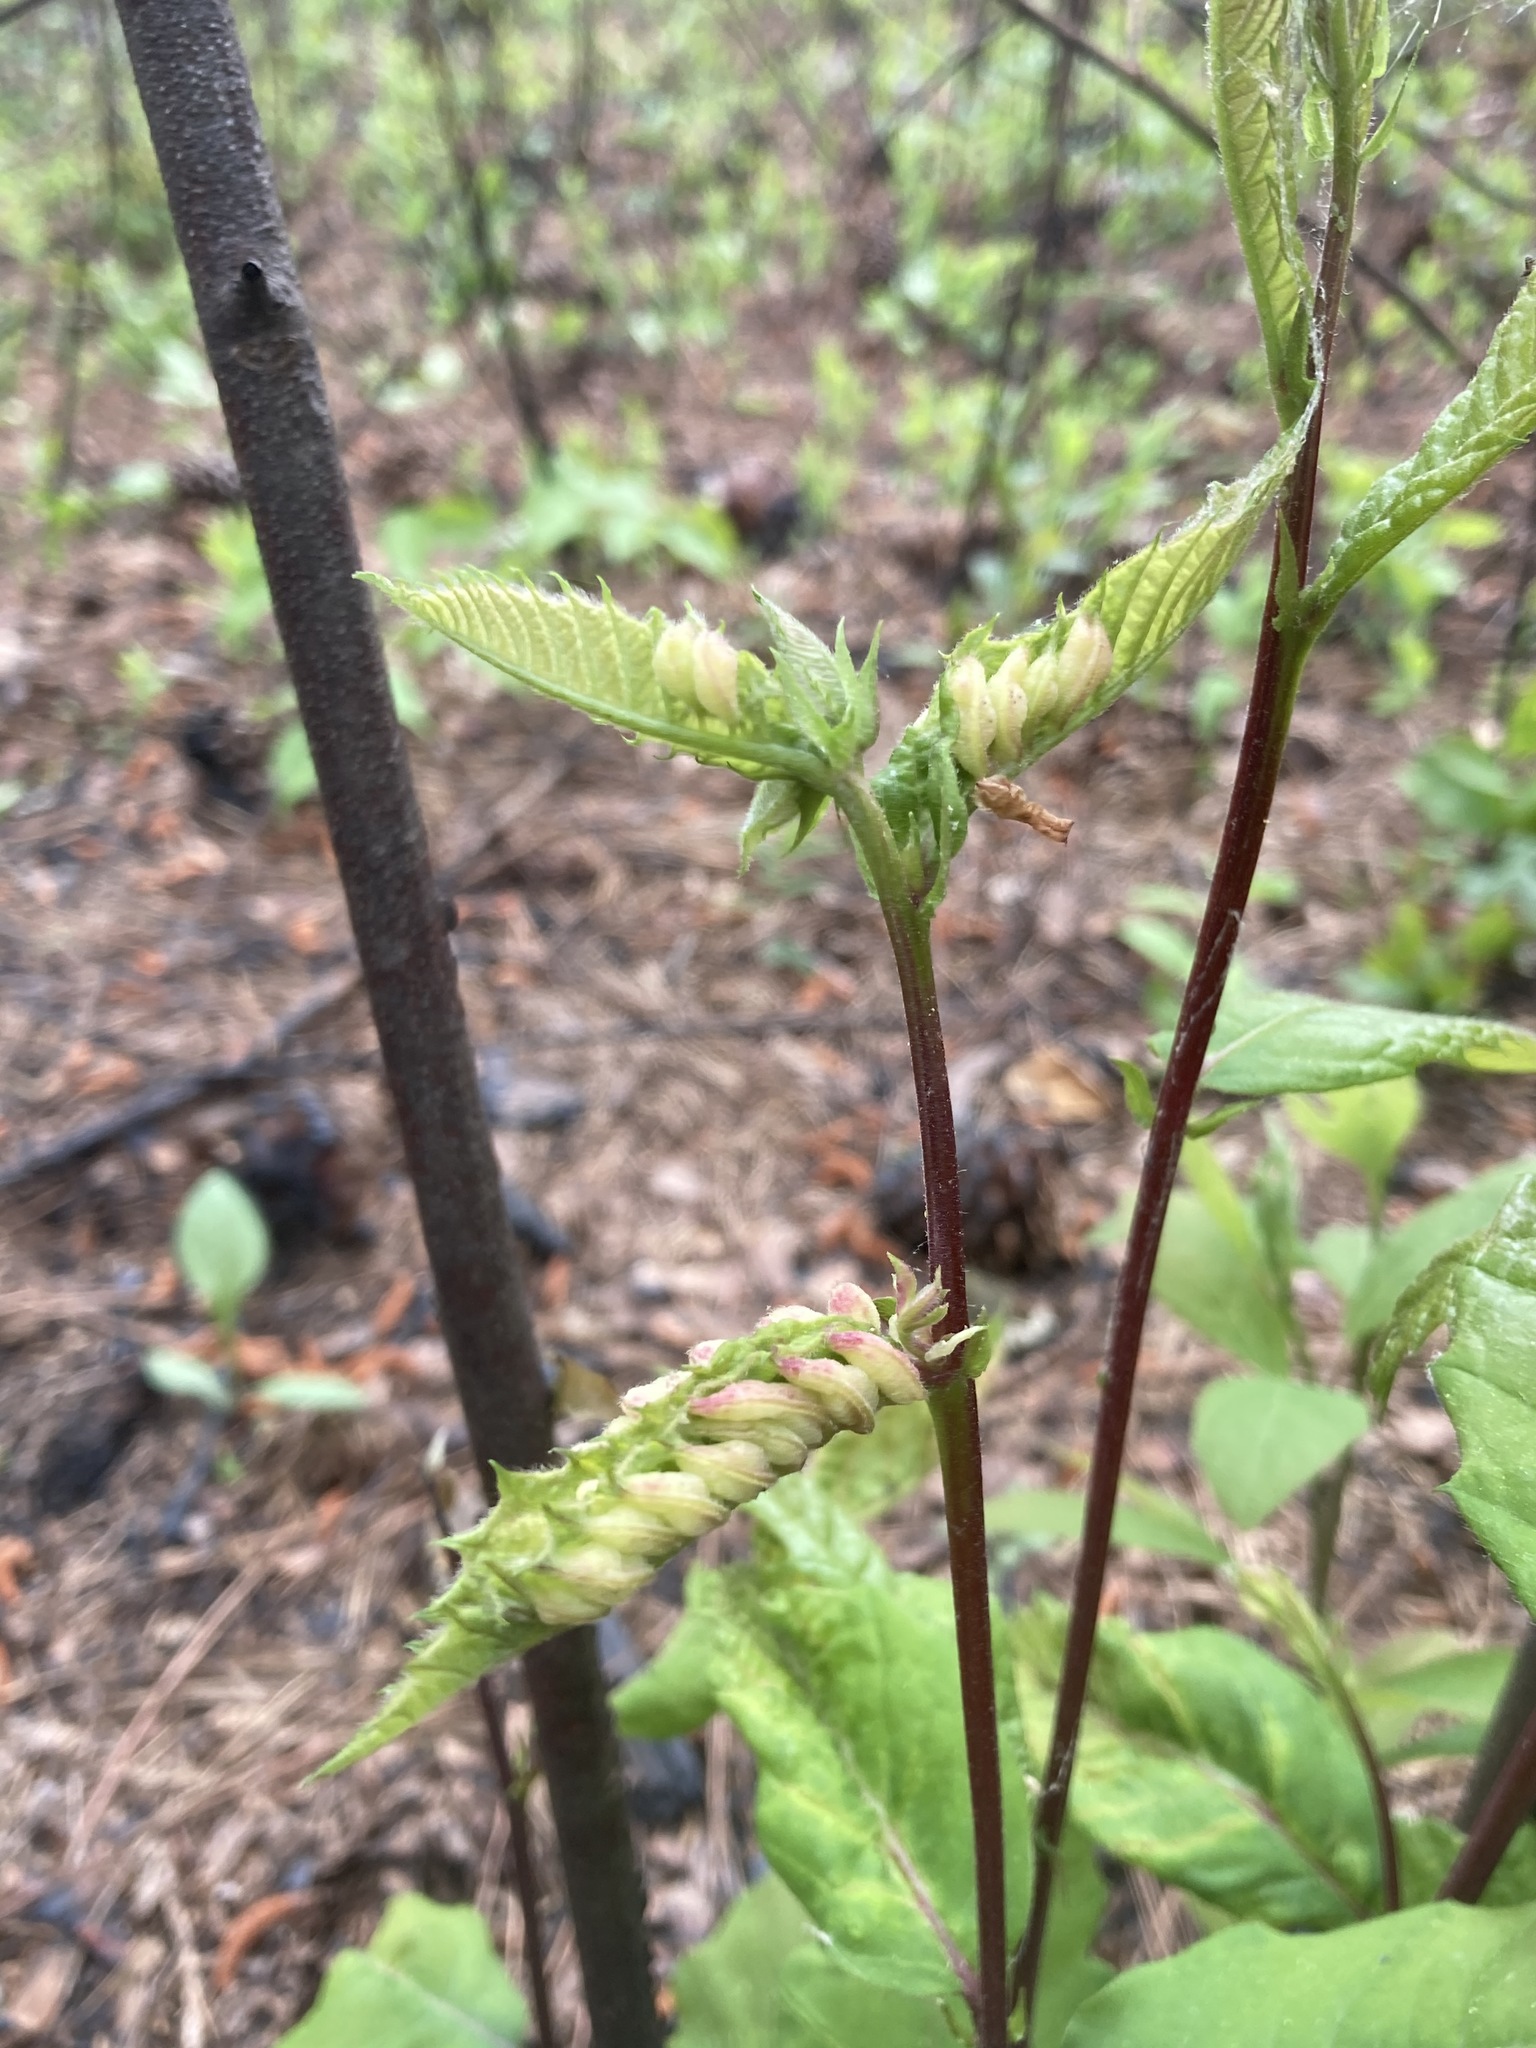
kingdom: Animalia
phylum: Arthropoda
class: Insecta
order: Diptera
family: Cecidomyiidae
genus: Harmandiola
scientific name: Harmandiola castaneae
